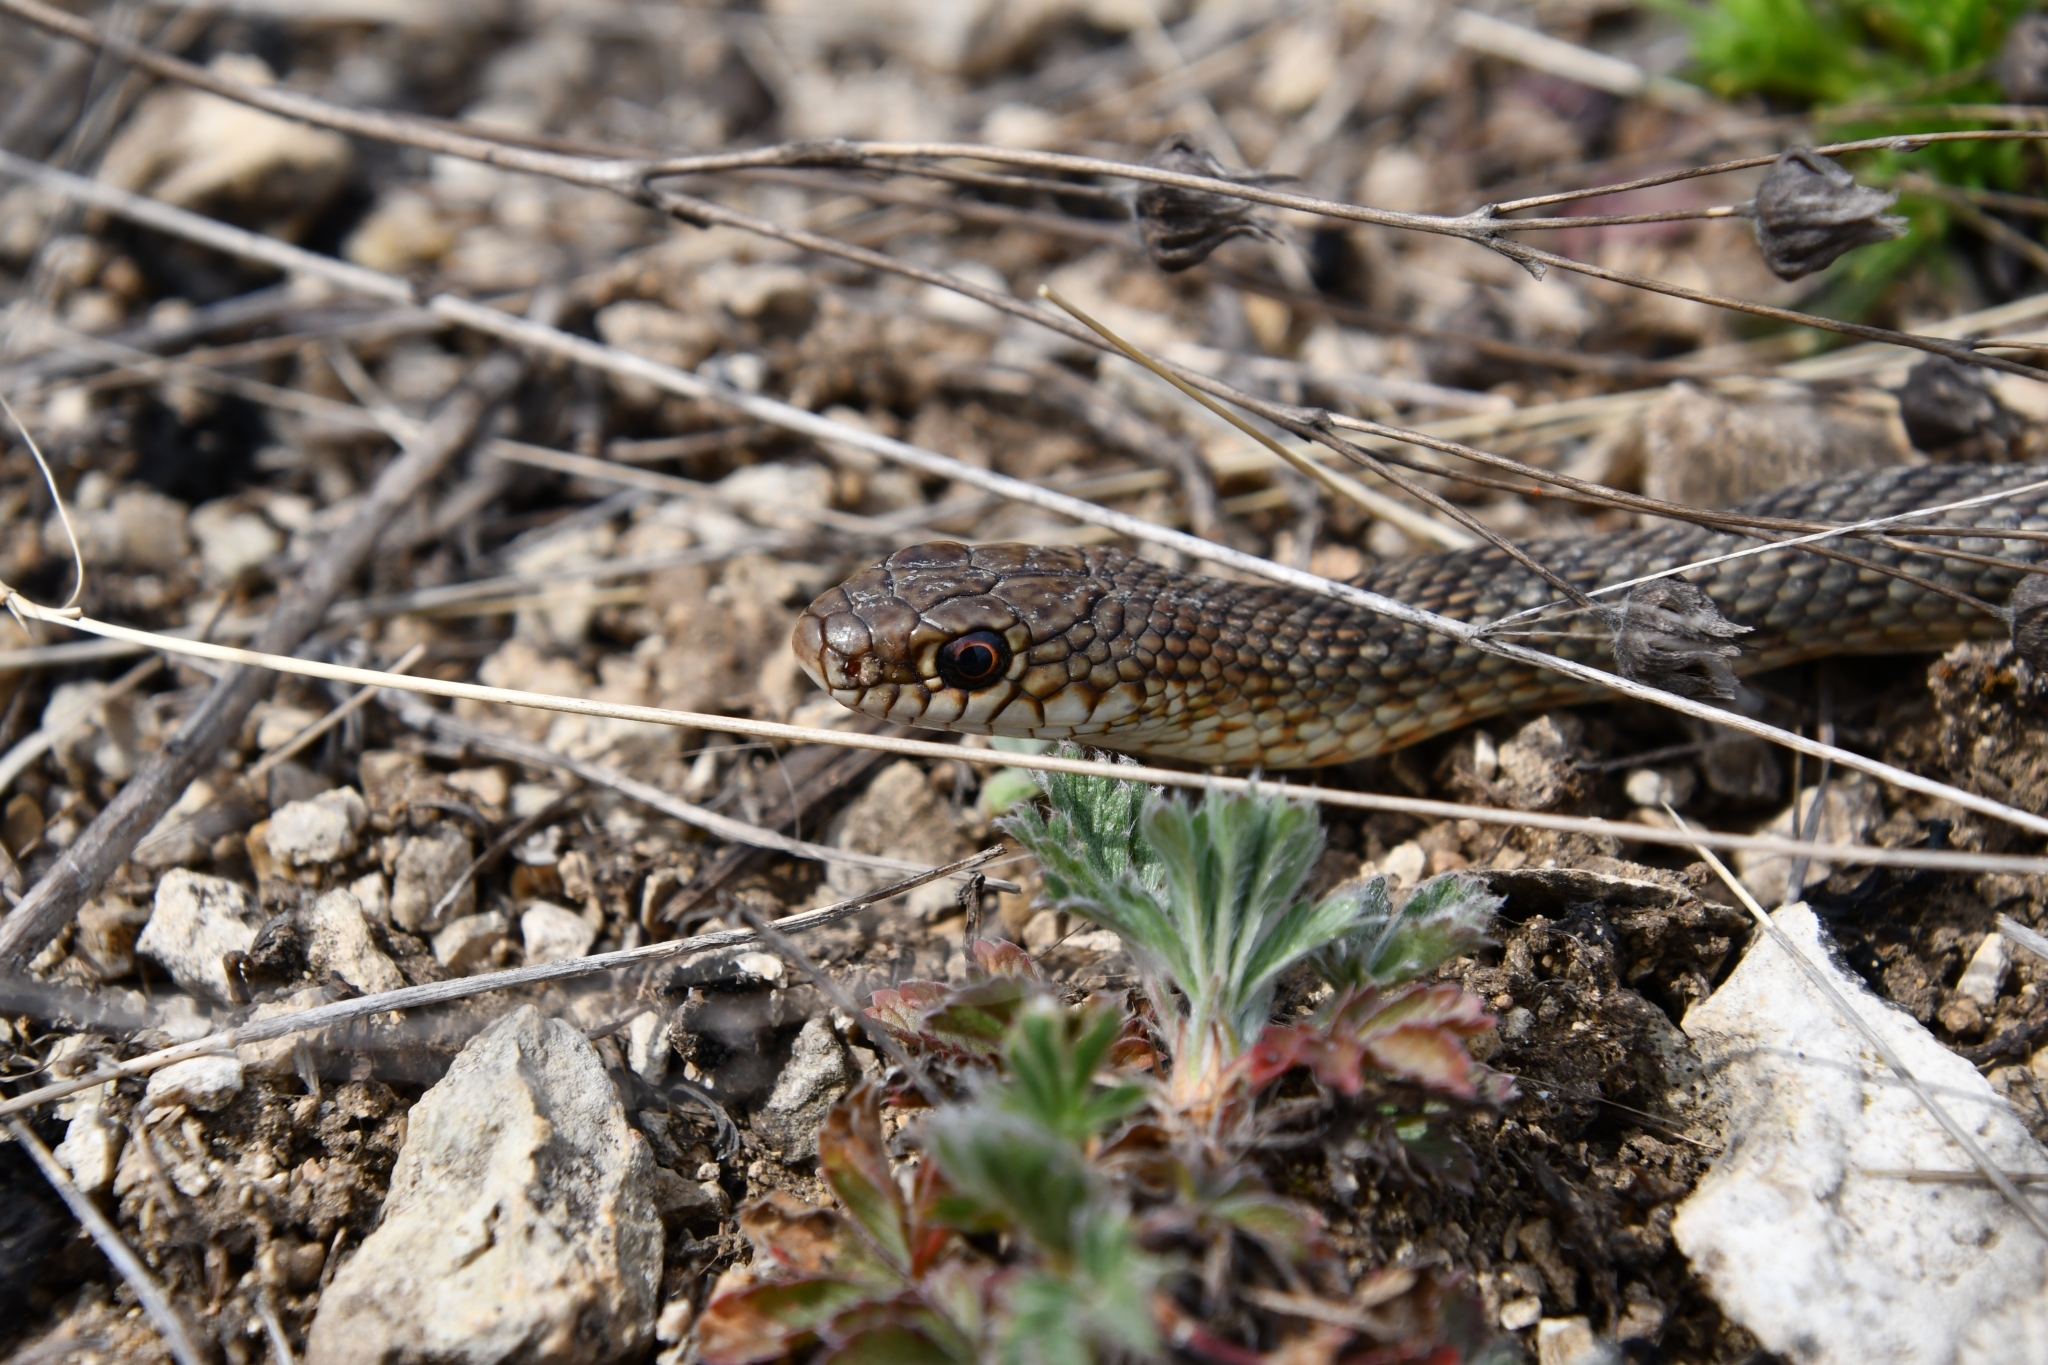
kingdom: Animalia
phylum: Chordata
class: Squamata
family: Colubridae
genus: Dolichophis
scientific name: Dolichophis caspius
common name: Large whip snake
